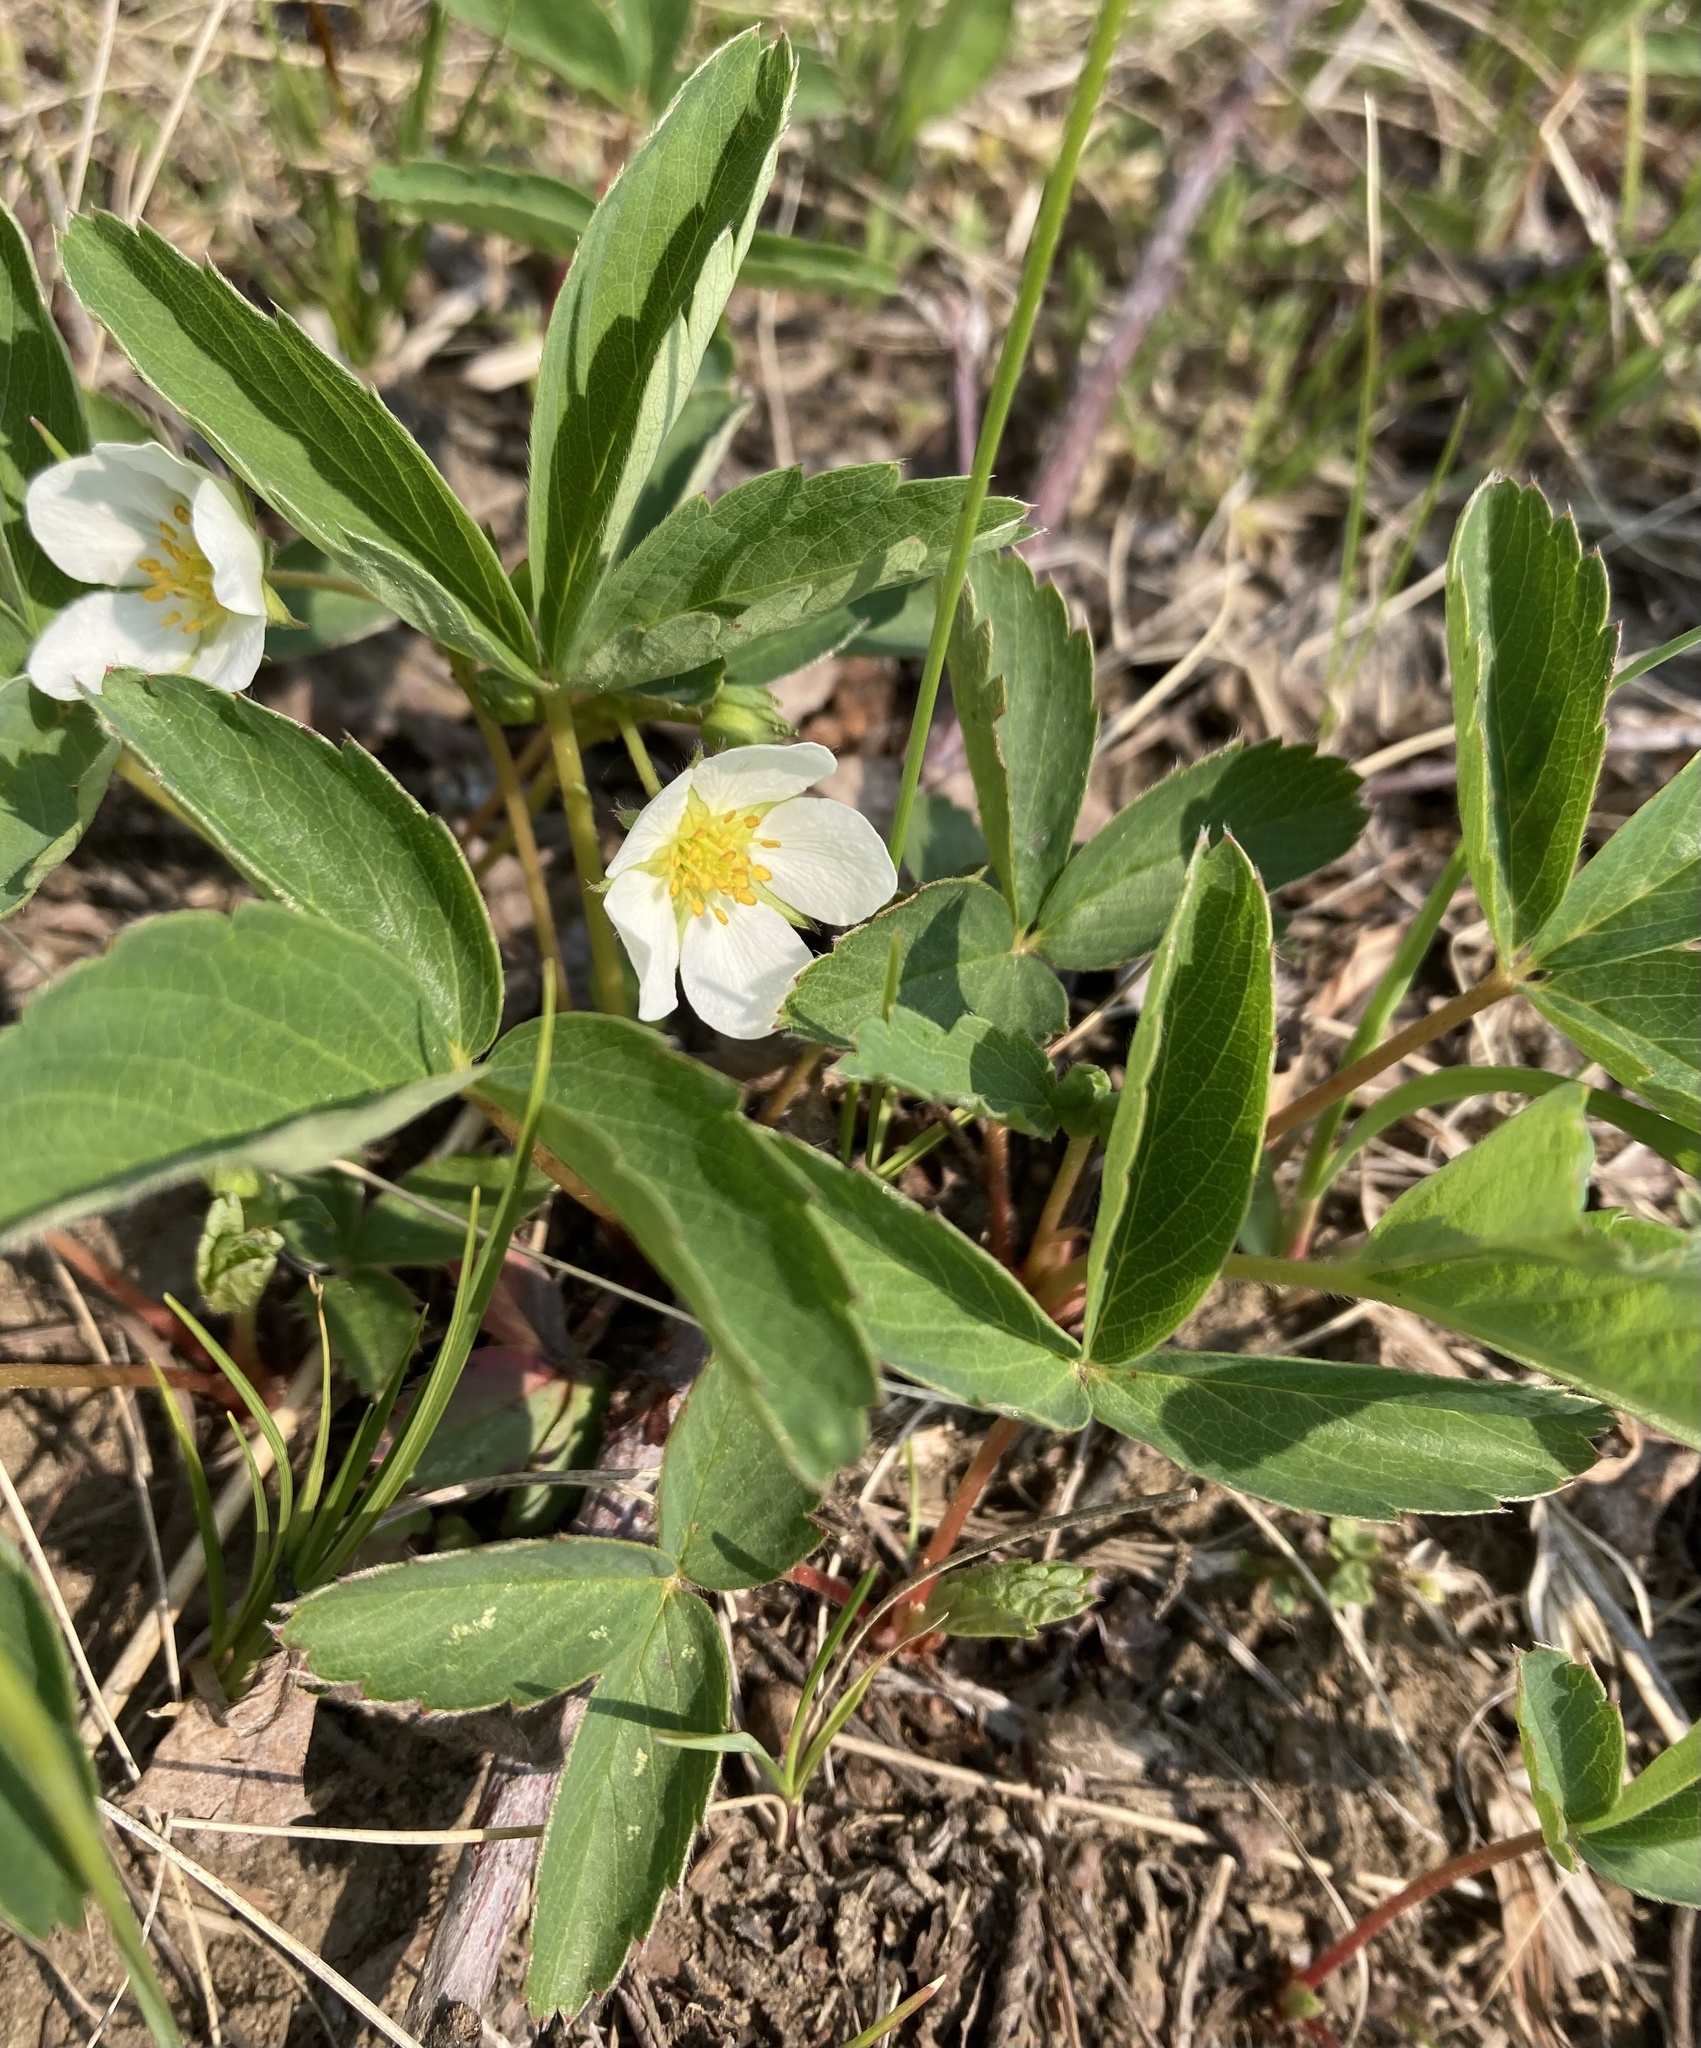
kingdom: Plantae
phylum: Tracheophyta
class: Magnoliopsida
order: Rosales
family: Rosaceae
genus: Fragaria
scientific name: Fragaria virginiana
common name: Thickleaved wild strawberry
